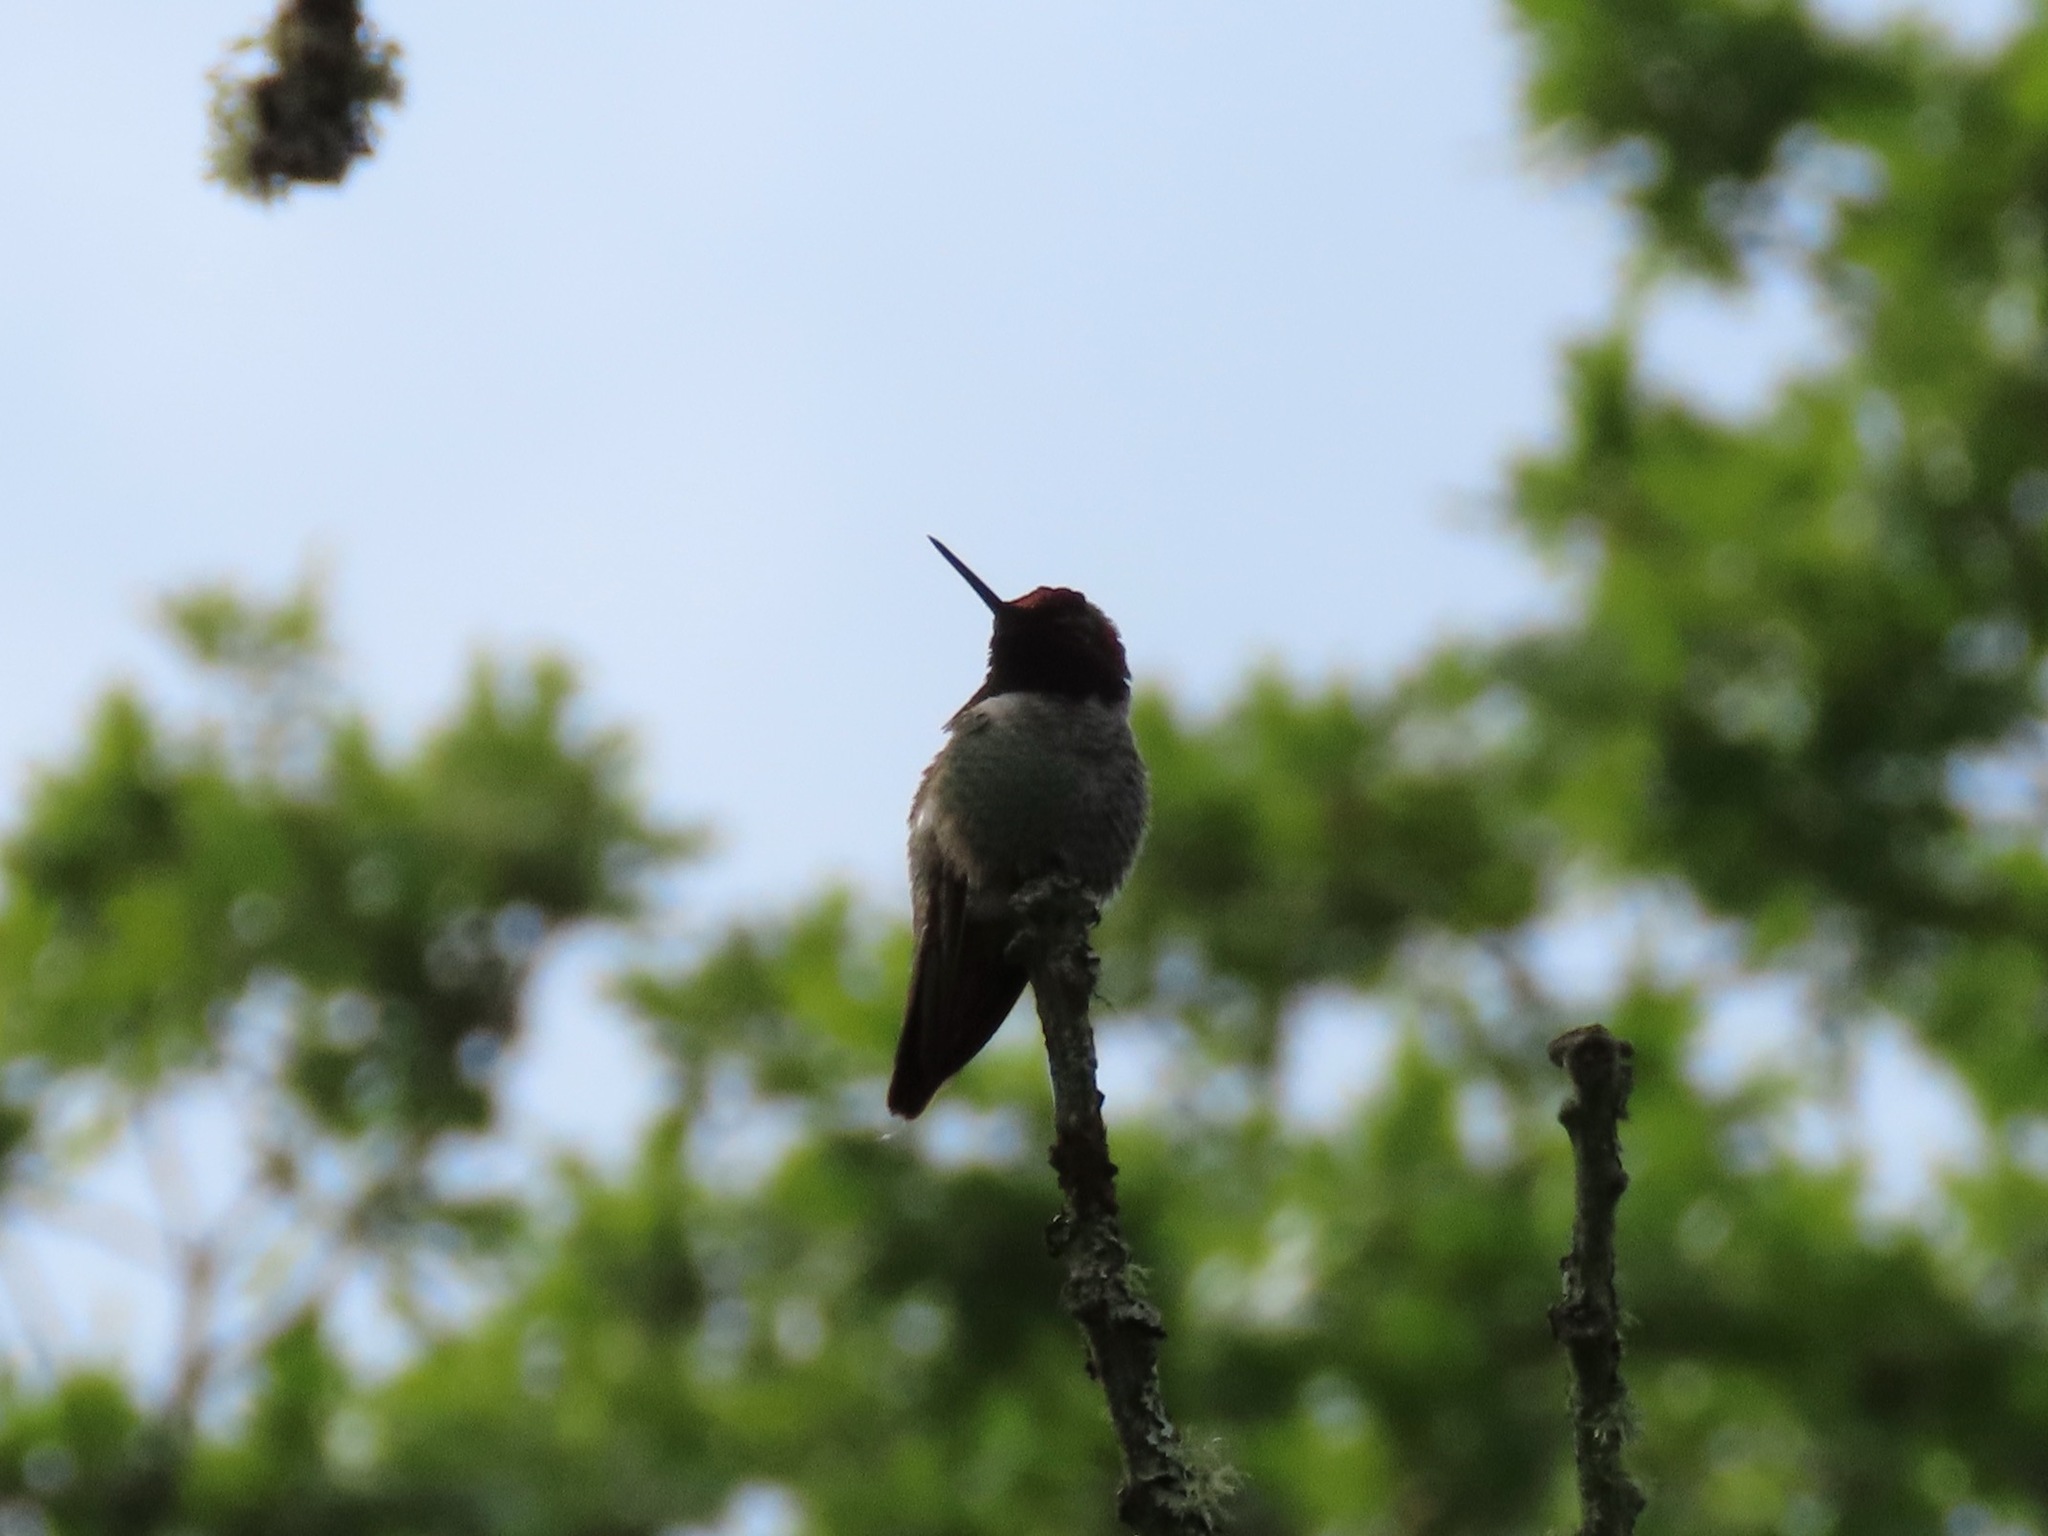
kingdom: Animalia
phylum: Chordata
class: Aves
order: Apodiformes
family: Trochilidae
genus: Calypte
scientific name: Calypte anna
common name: Anna's hummingbird
